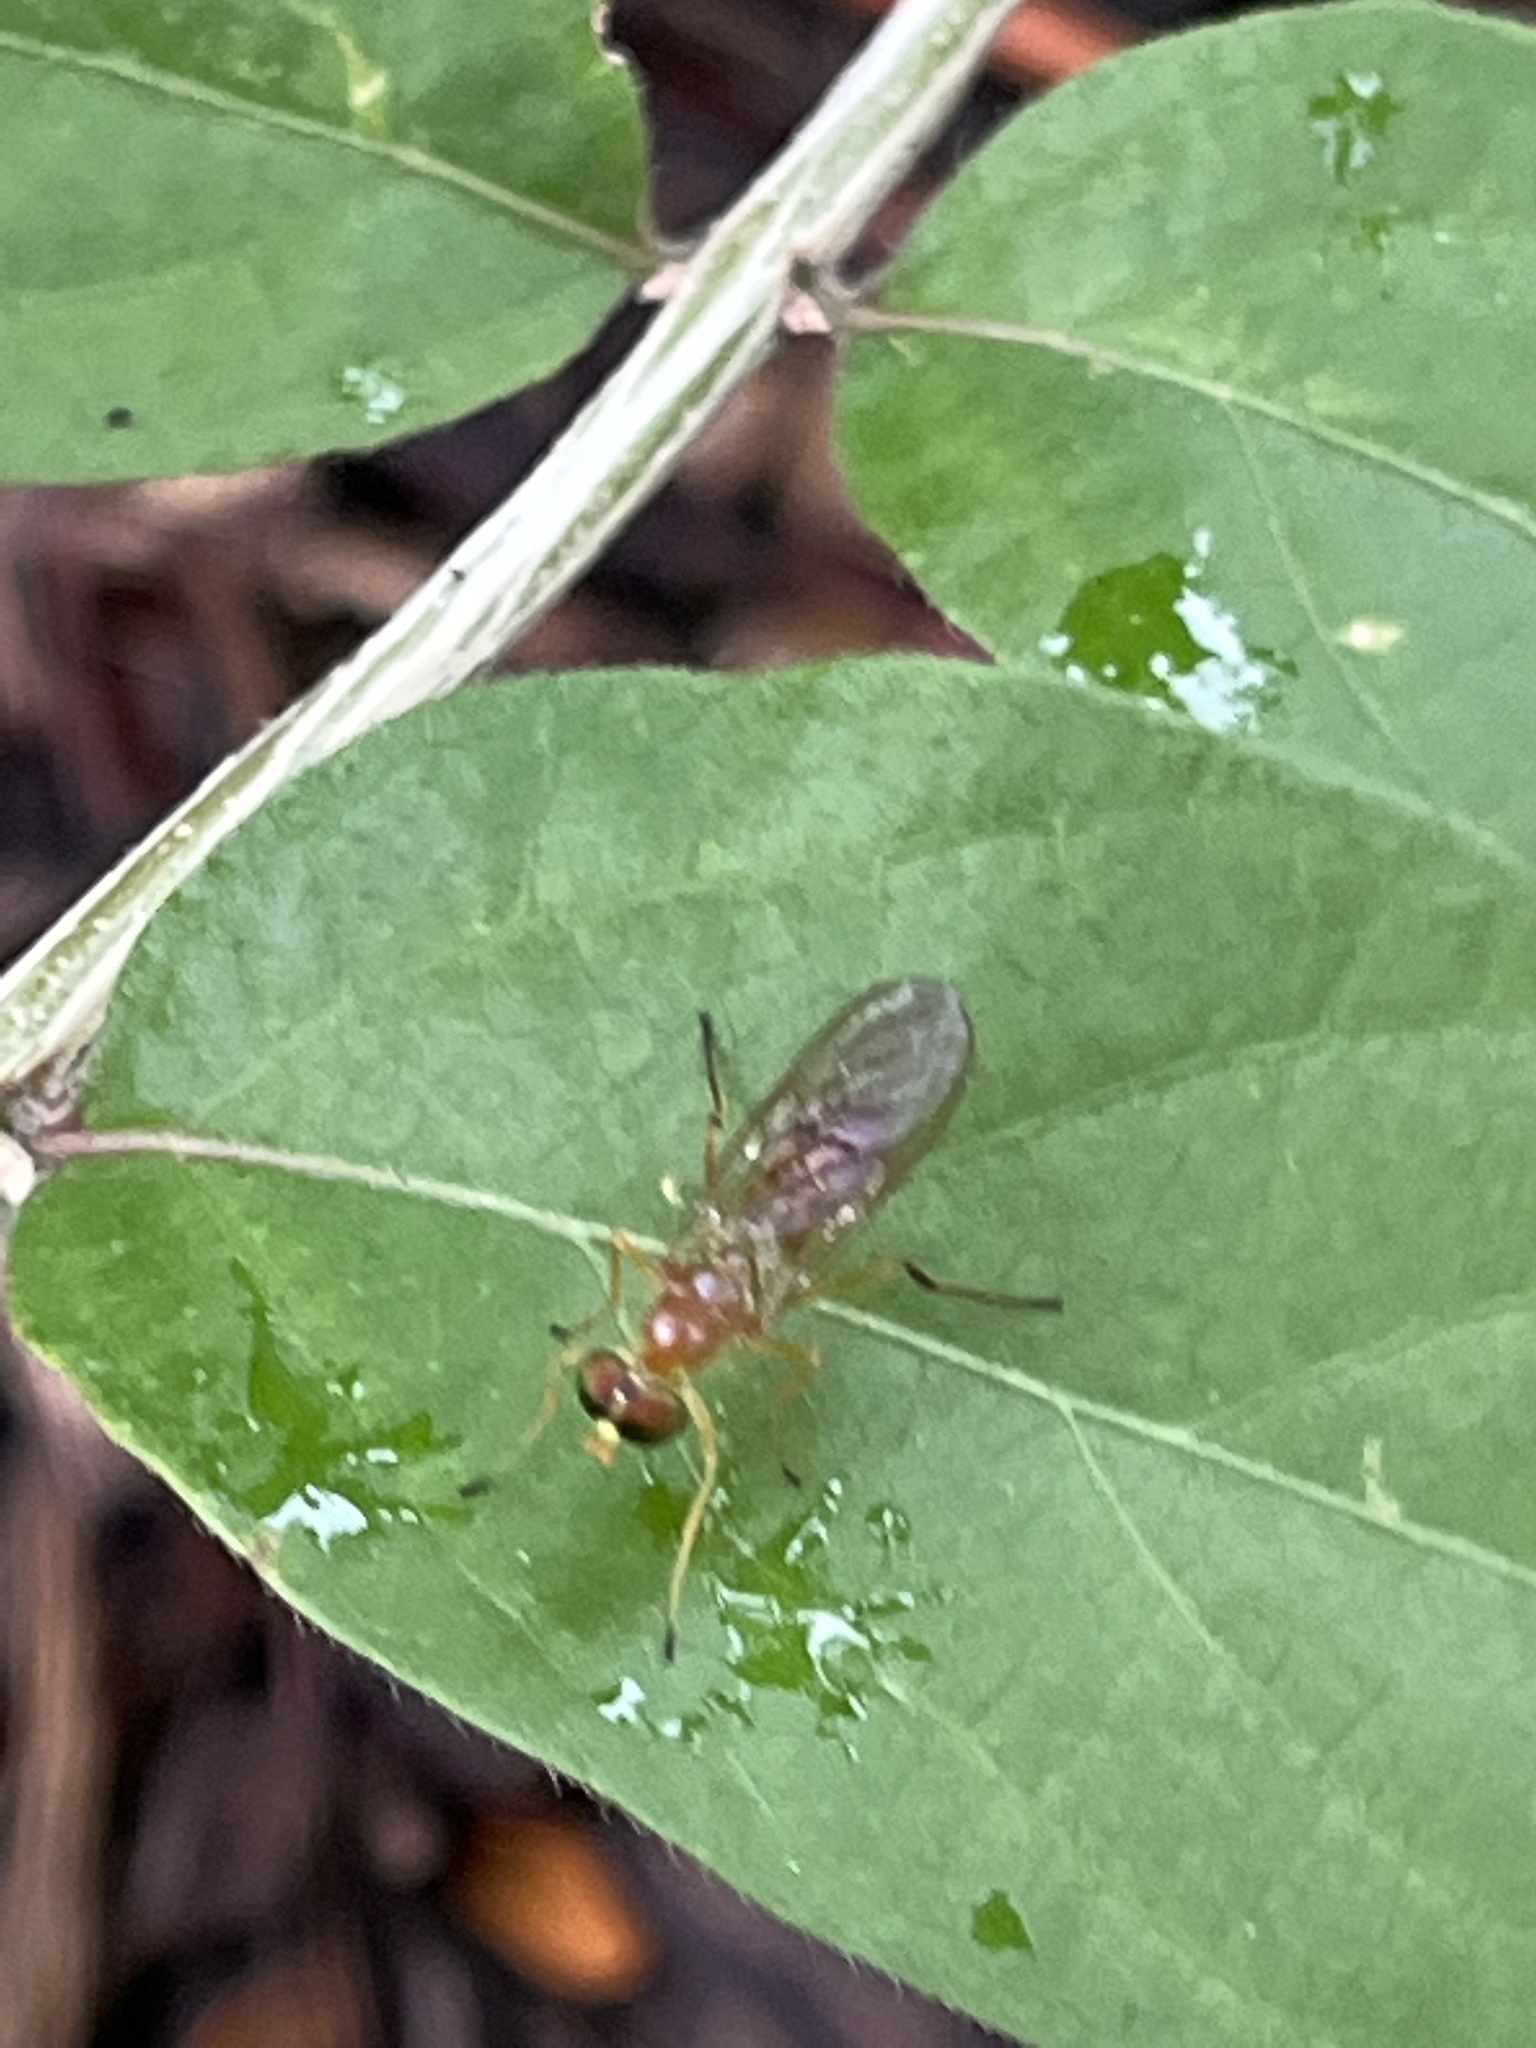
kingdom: Animalia
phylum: Arthropoda
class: Insecta
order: Diptera
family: Stratiomyidae
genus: Ptecticus
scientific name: Ptecticus trivittatus
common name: Compost fly
